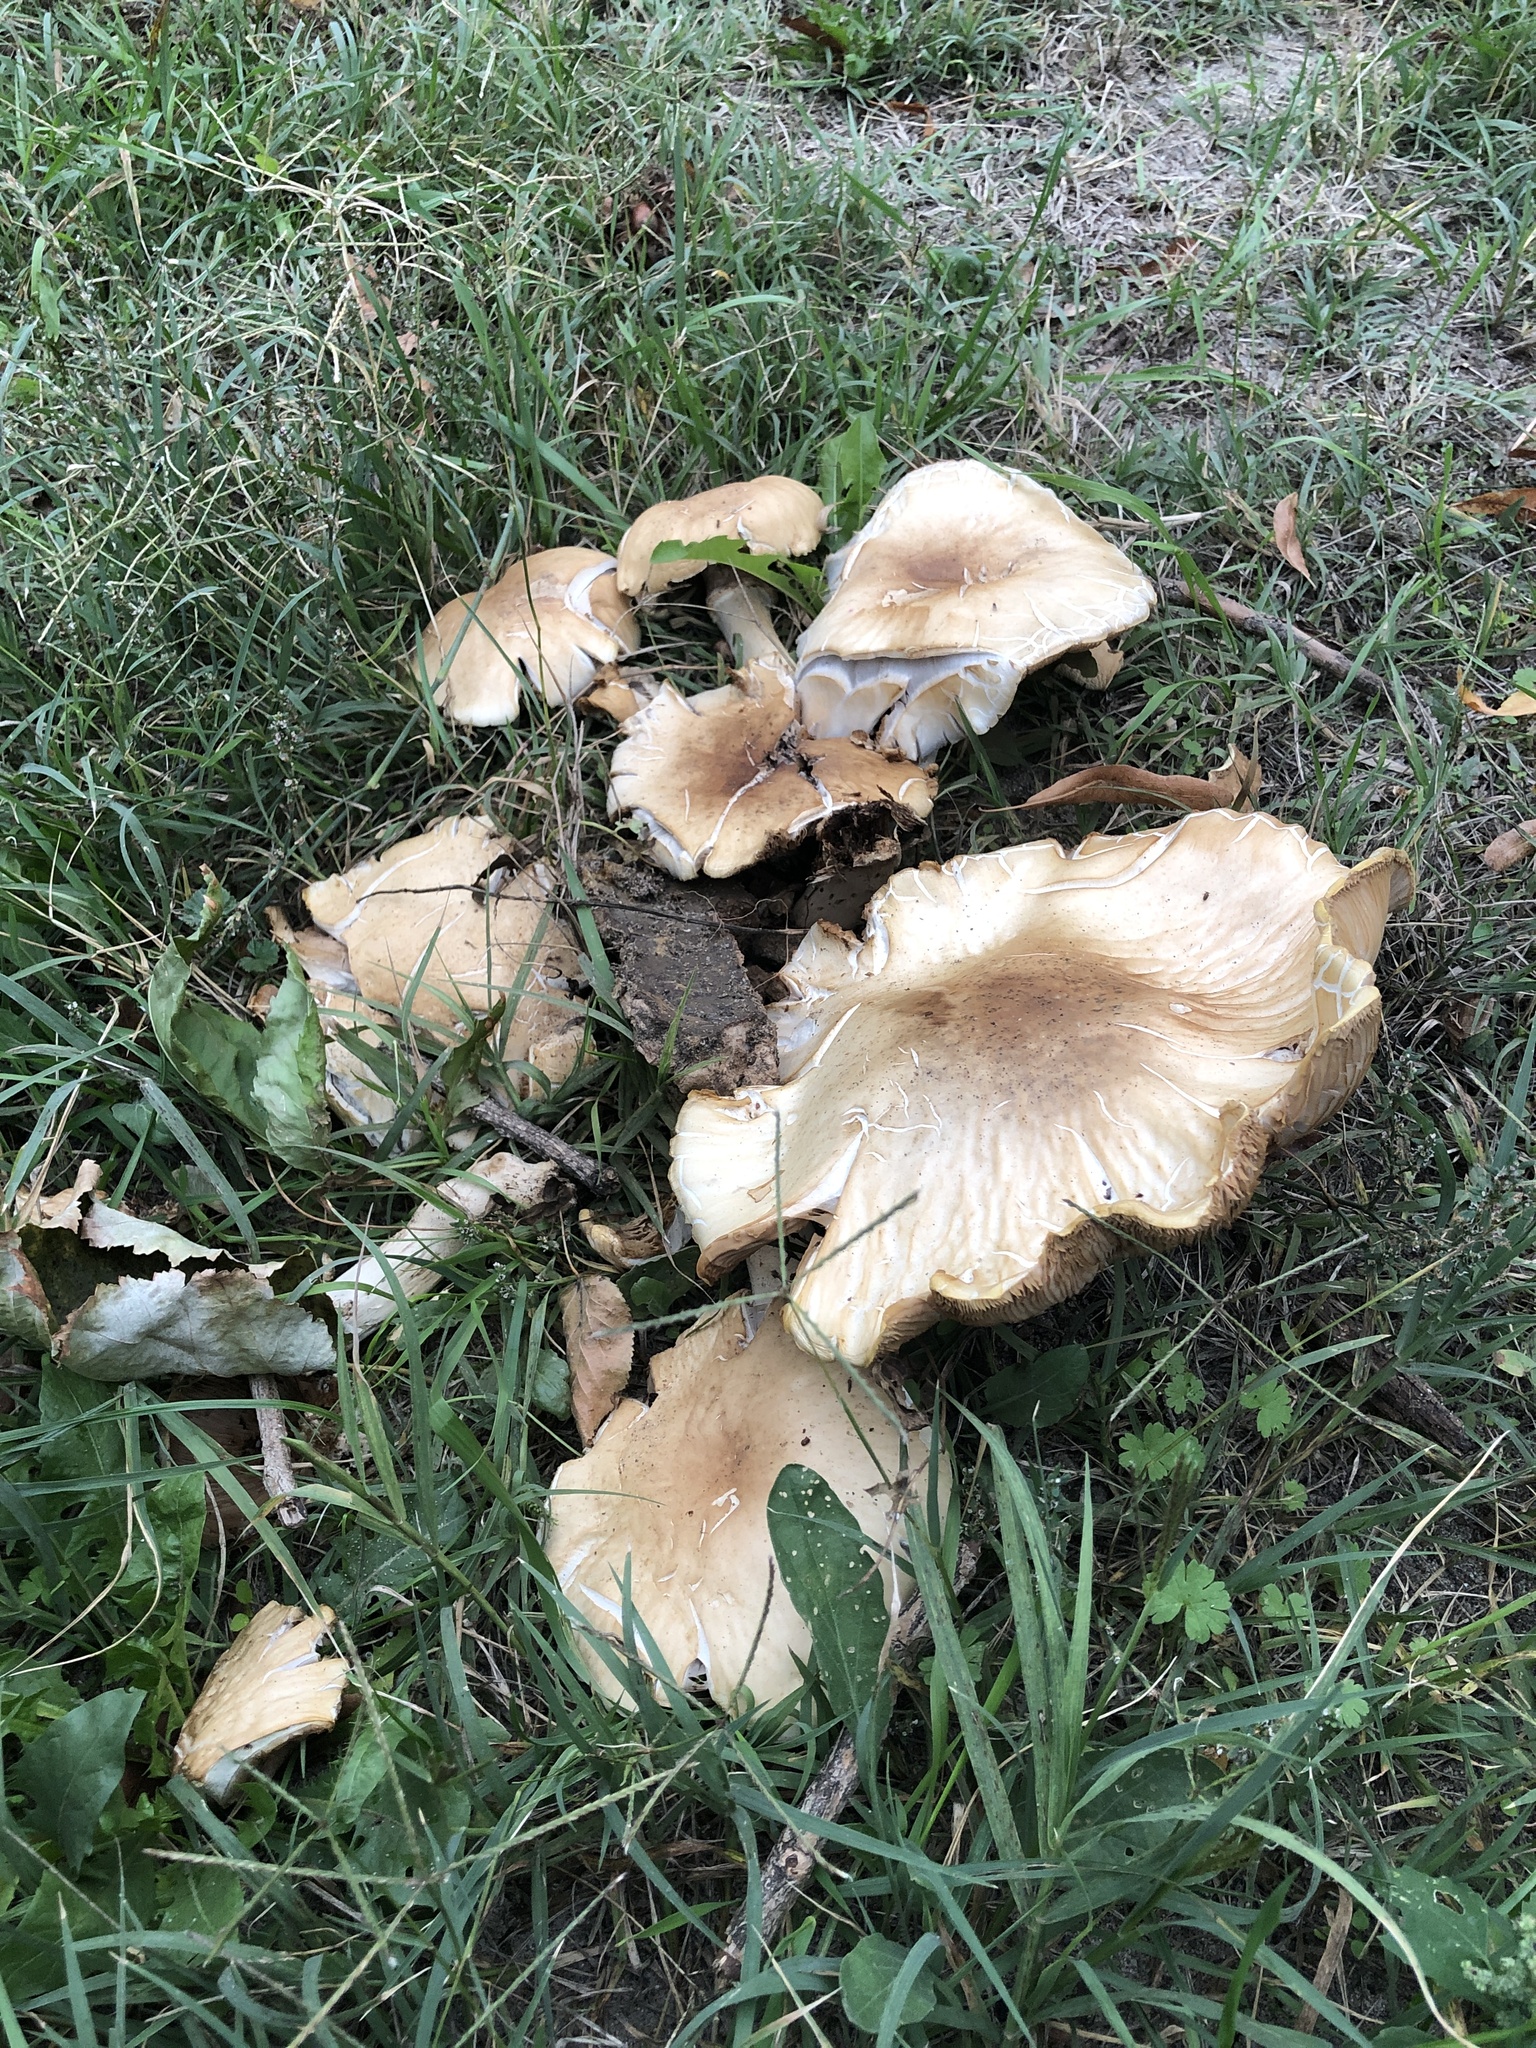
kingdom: Fungi
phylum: Basidiomycota
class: Agaricomycetes
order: Agaricales
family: Tubariaceae
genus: Cyclocybe
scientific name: Cyclocybe cylindracea
